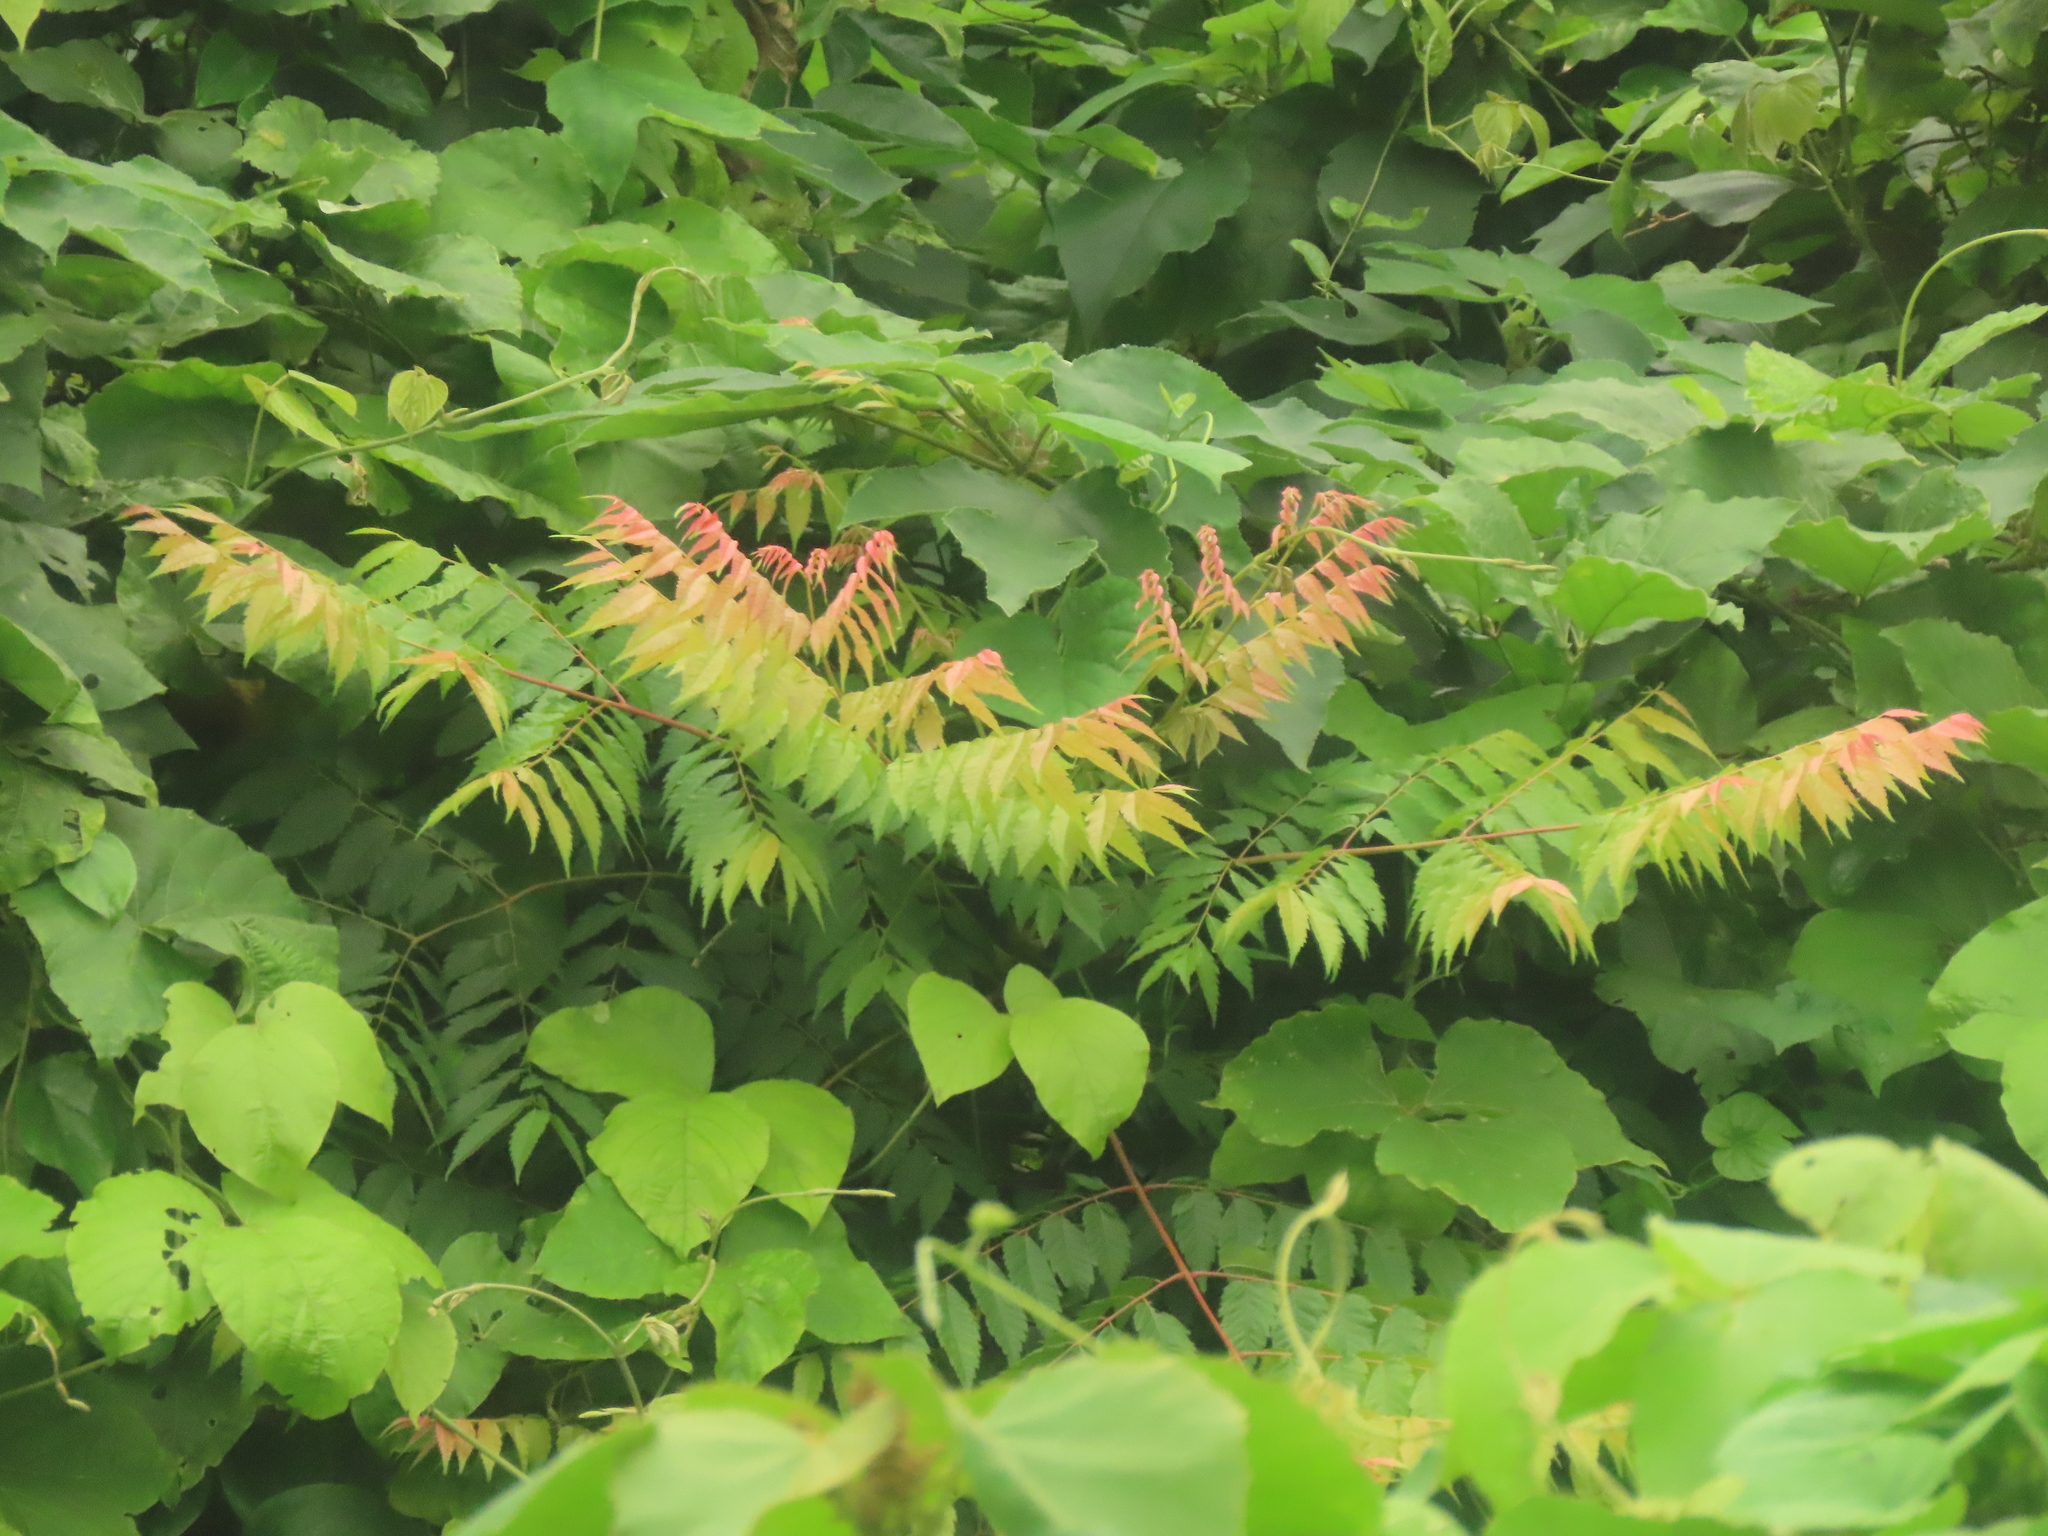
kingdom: Plantae
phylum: Tracheophyta
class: Magnoliopsida
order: Sapindales
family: Sapindaceae
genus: Koelreuteria
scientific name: Koelreuteria elegans
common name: Chinese flame tree
